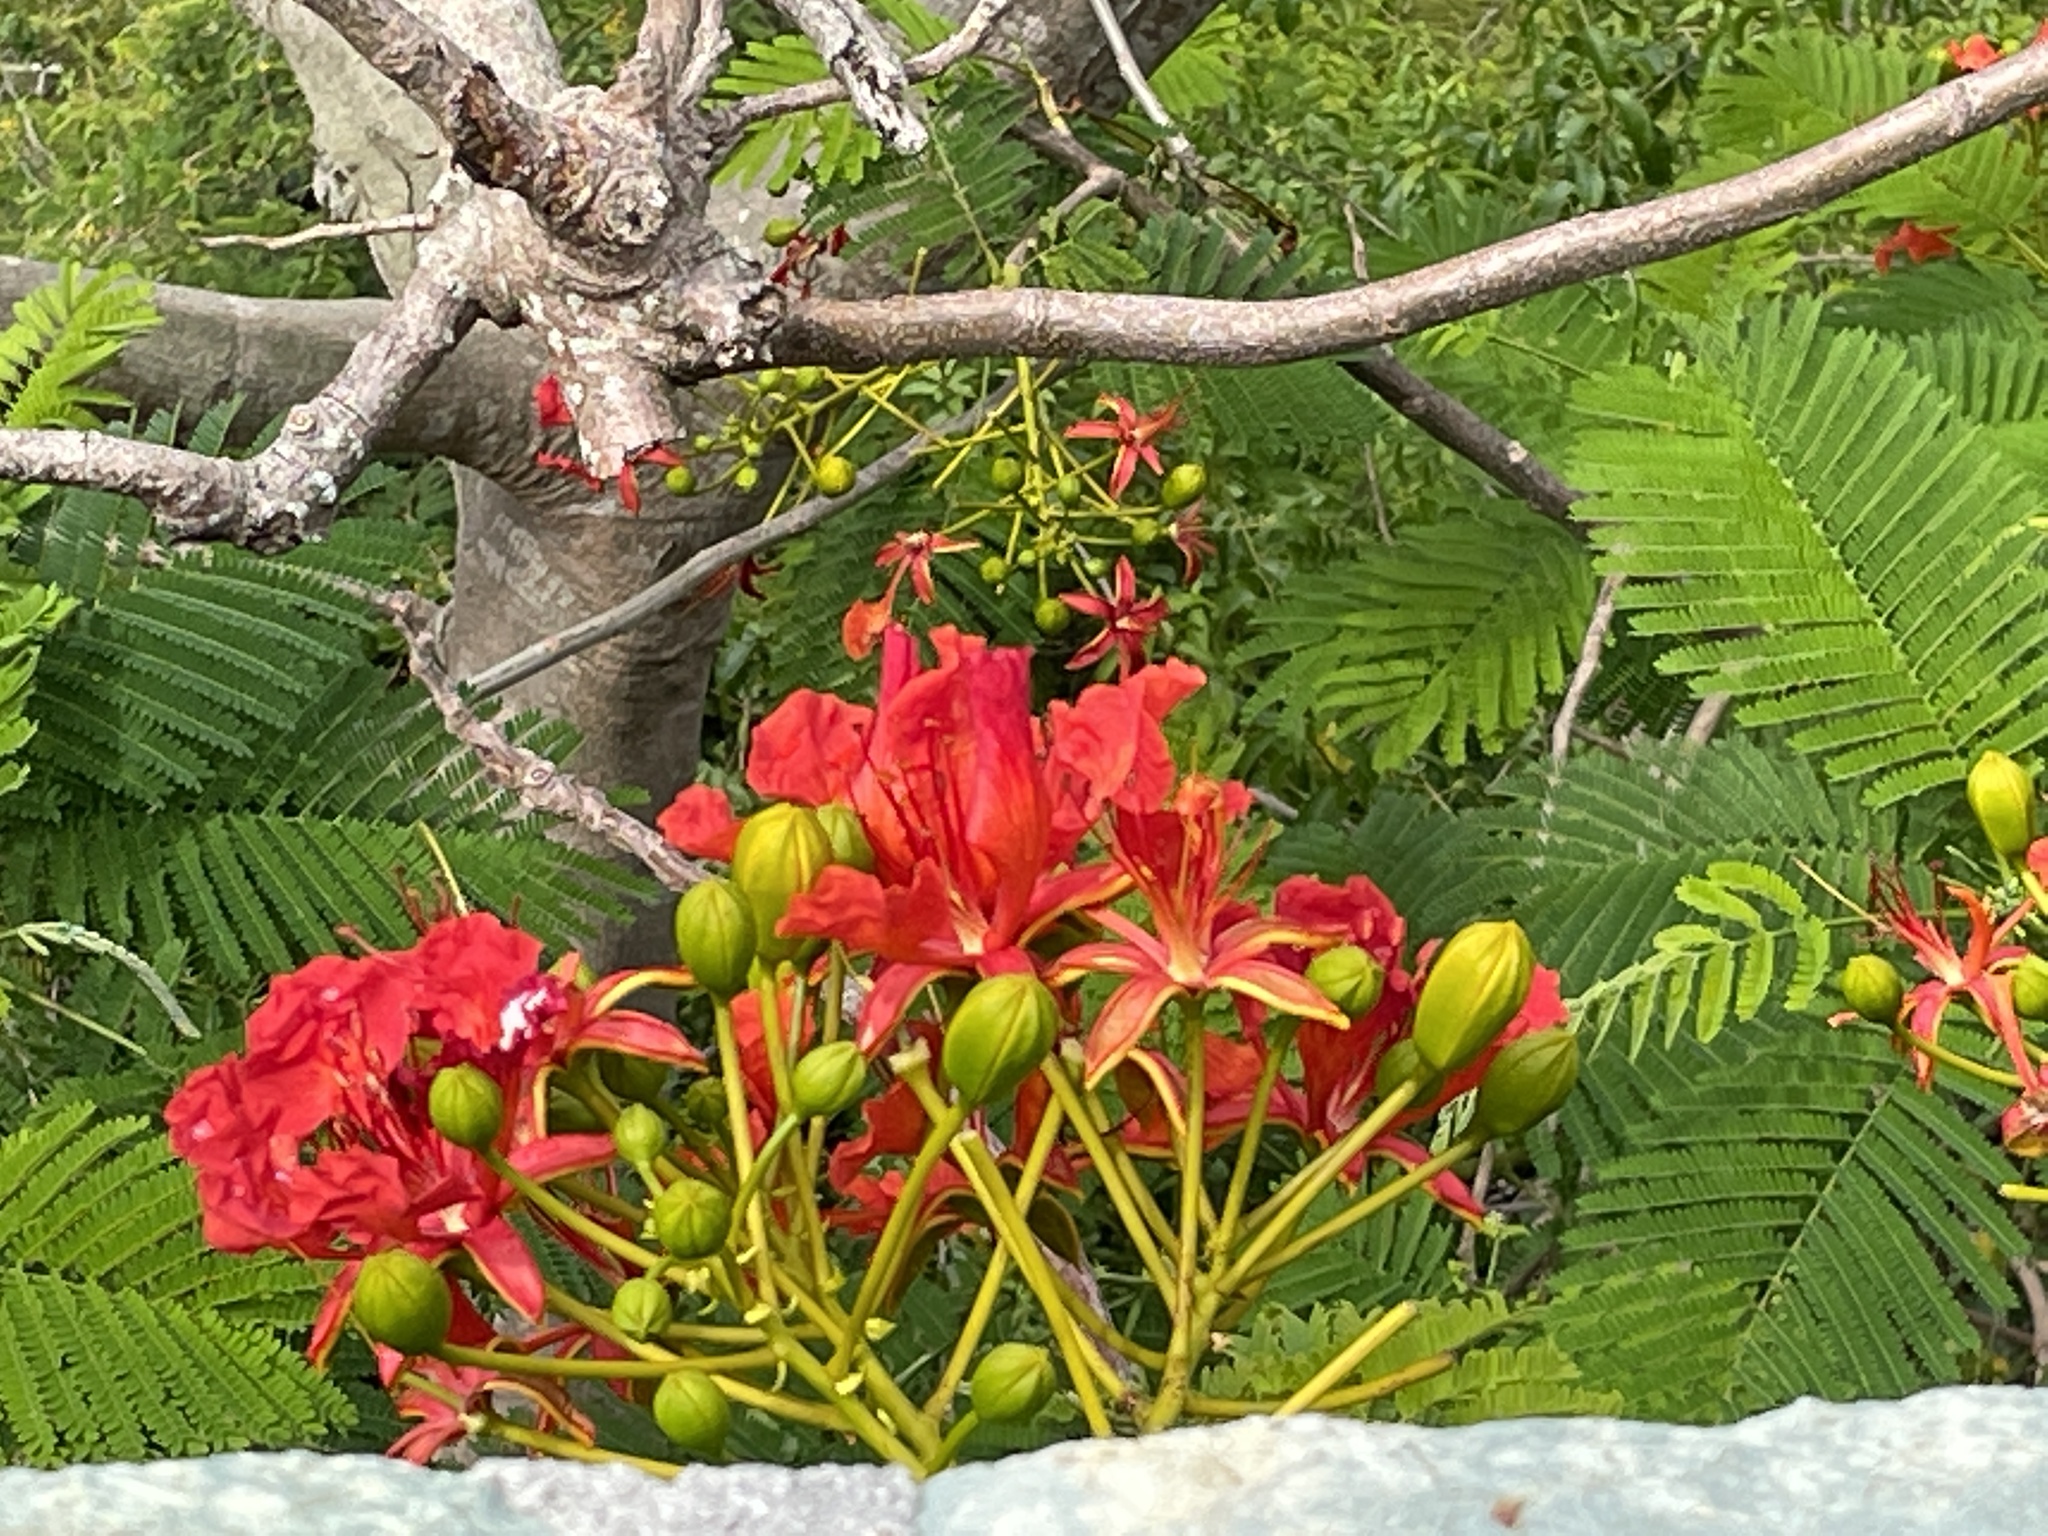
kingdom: Plantae
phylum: Tracheophyta
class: Magnoliopsida
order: Fabales
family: Fabaceae
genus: Delonix
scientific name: Delonix regia
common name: Royal poinciana
